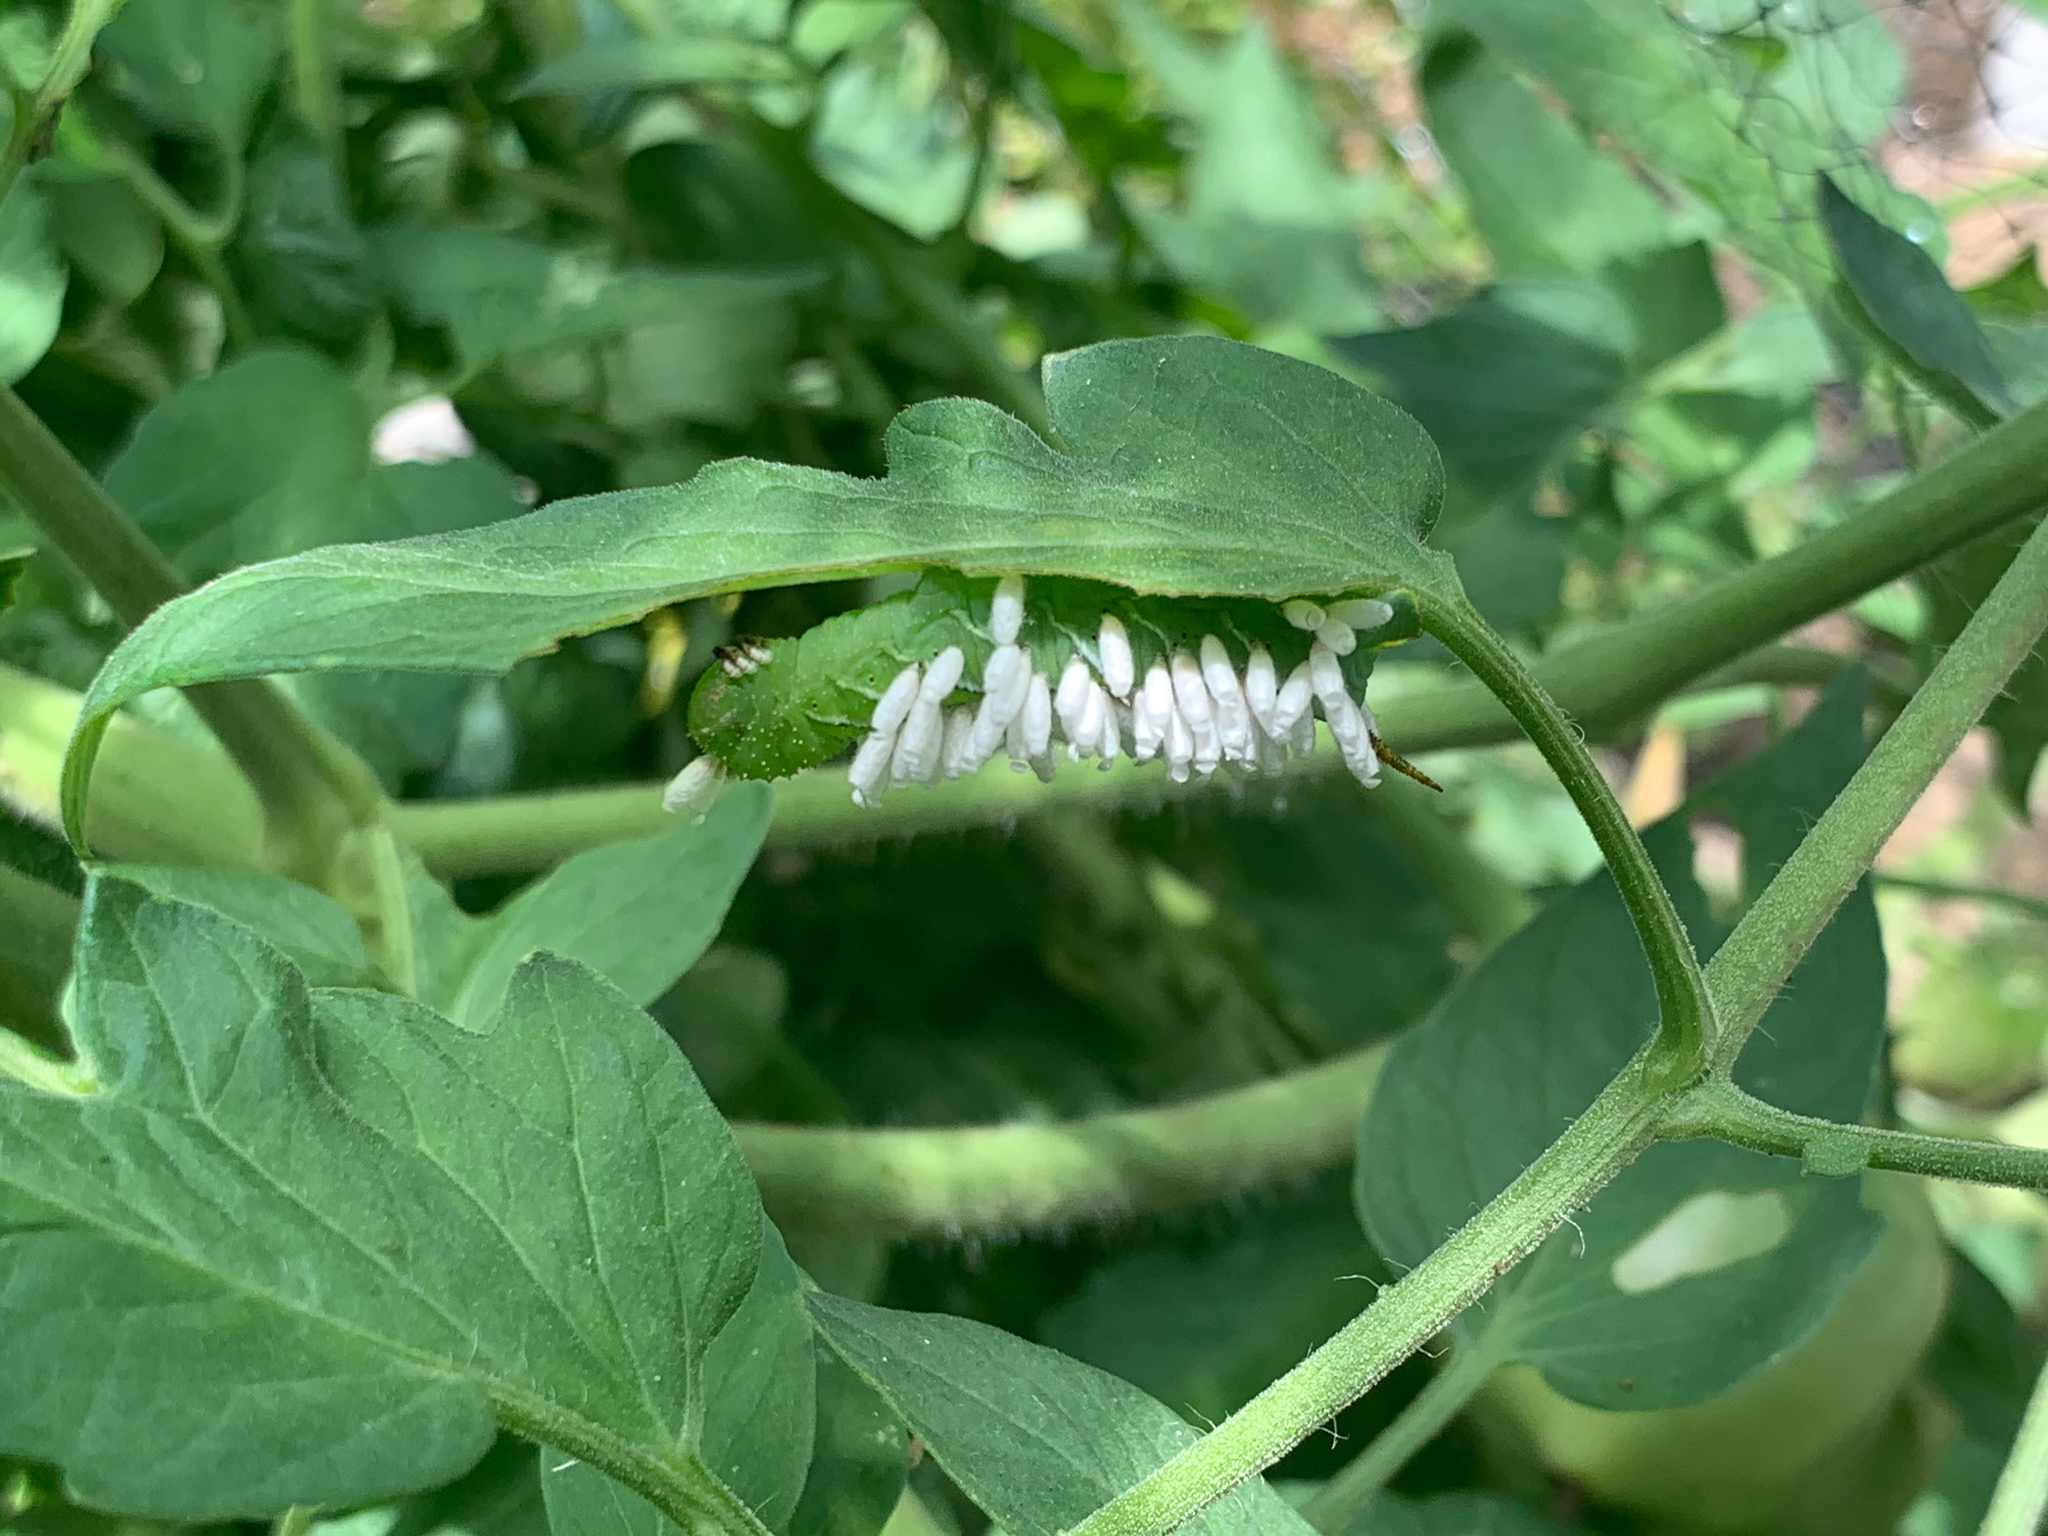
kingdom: Animalia
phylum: Arthropoda
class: Insecta
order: Hymenoptera
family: Braconidae
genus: Cotesia
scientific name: Cotesia congregata
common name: Hornworm parasitoid wasp
